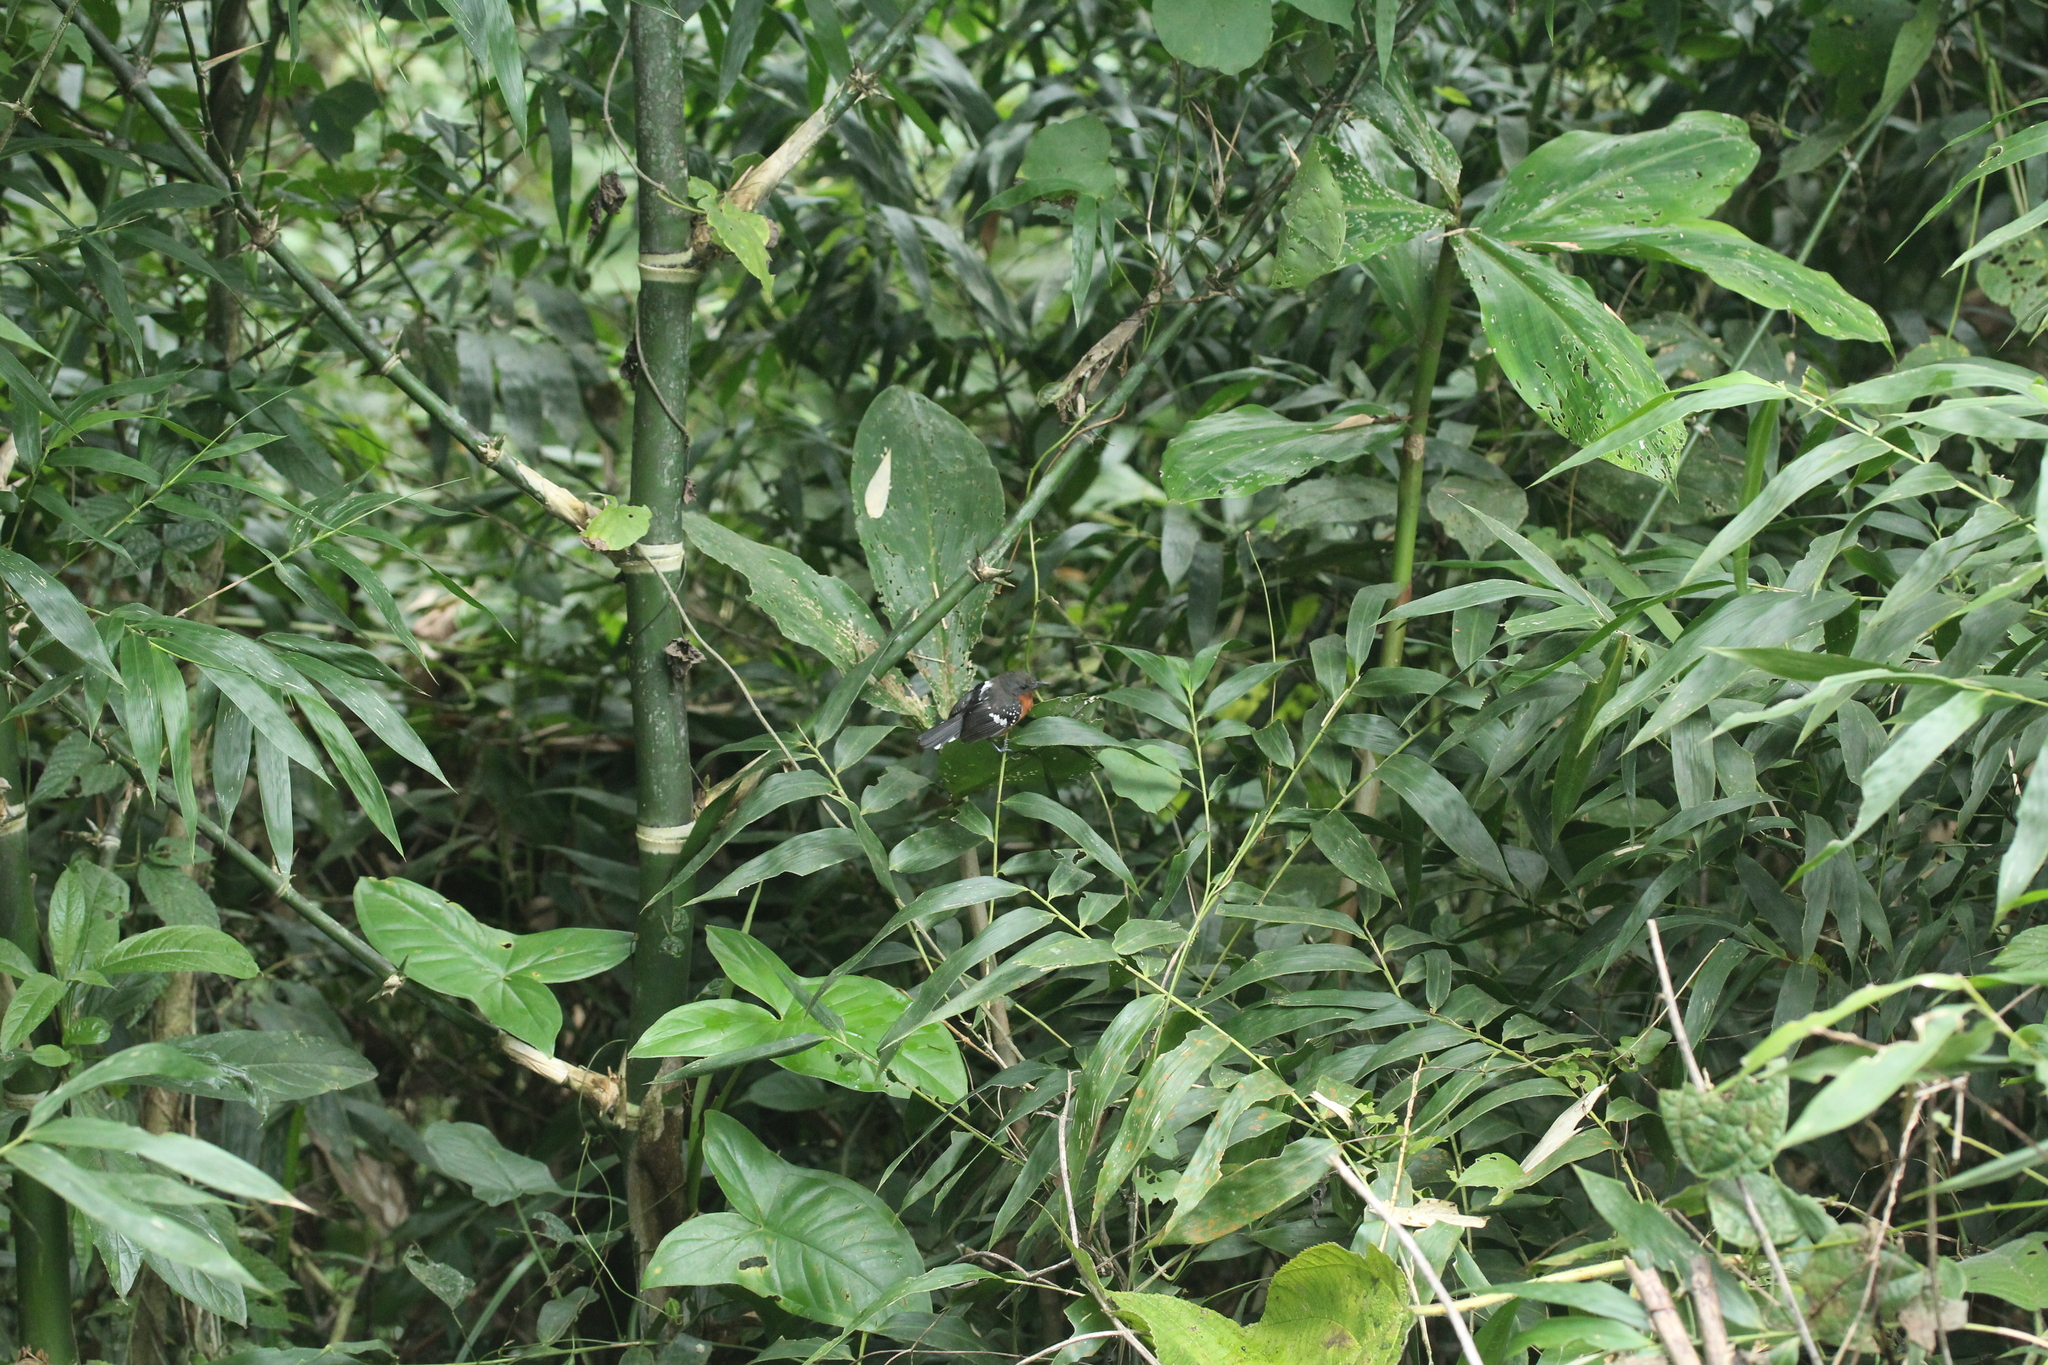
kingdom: Animalia
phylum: Chordata
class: Aves
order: Passeriformes
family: Thamnophilidae
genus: Microrhopias
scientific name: Microrhopias quixensis
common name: Dot-winged antwren
